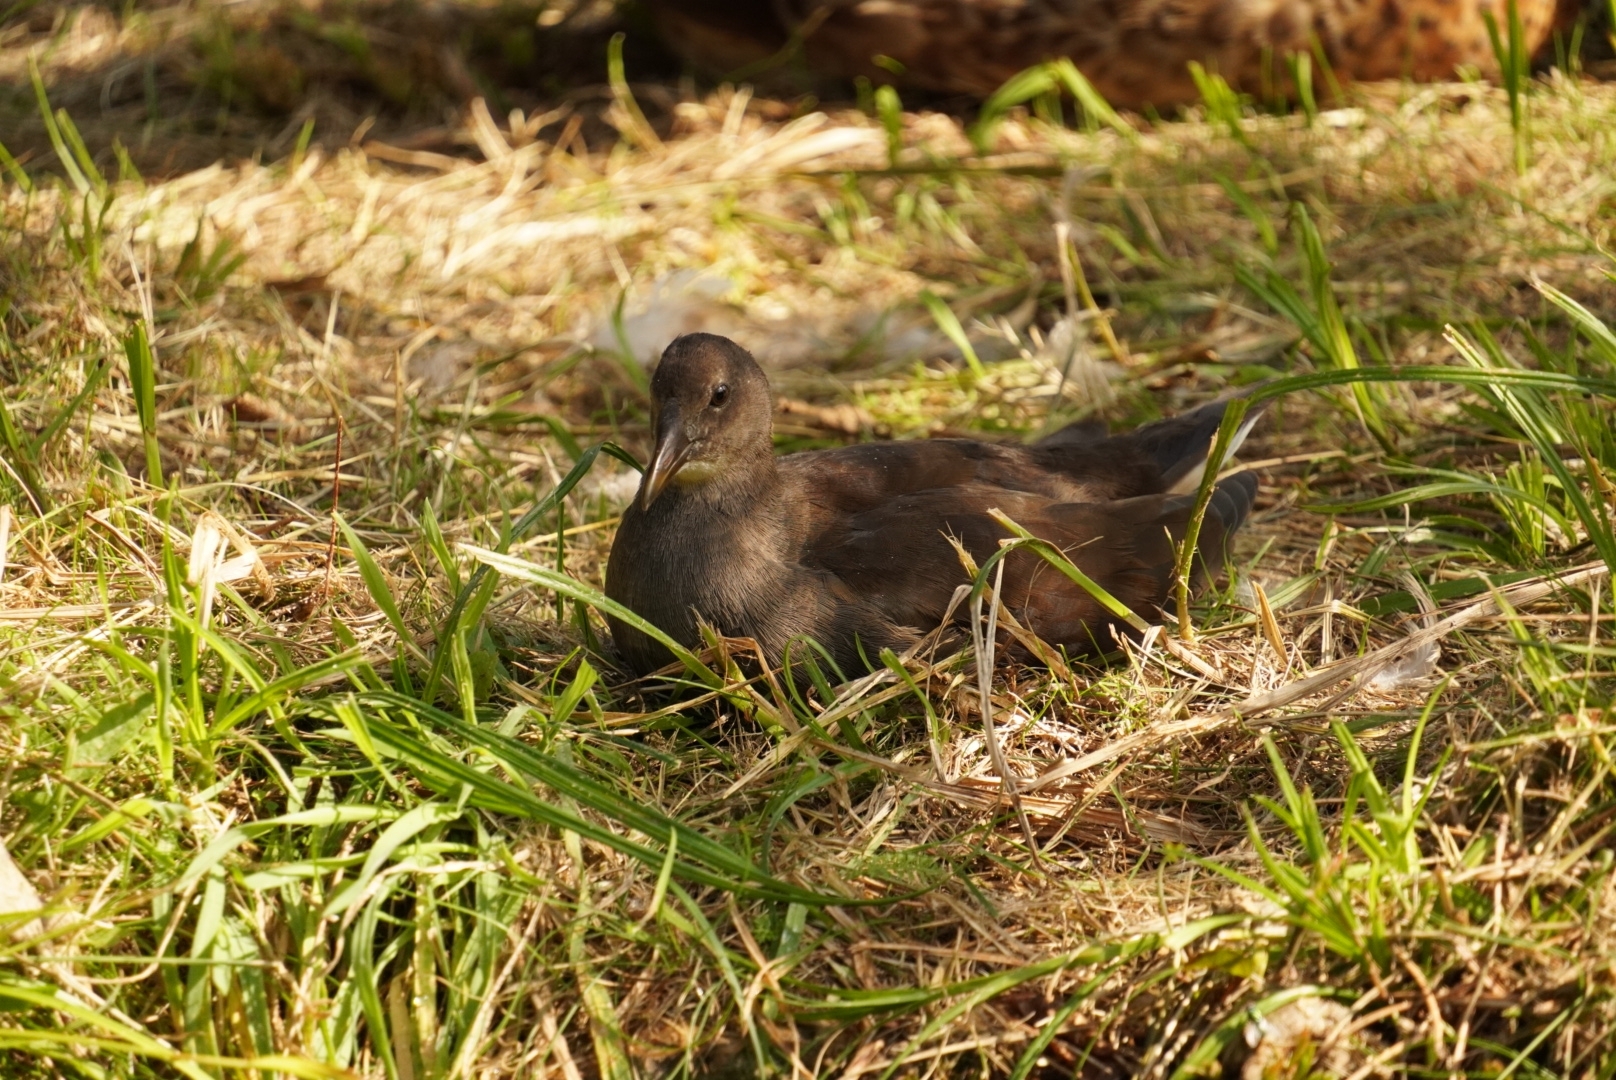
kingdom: Animalia
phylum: Chordata
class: Aves
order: Gruiformes
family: Rallidae
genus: Gallinula
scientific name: Gallinula chloropus
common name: Common moorhen
